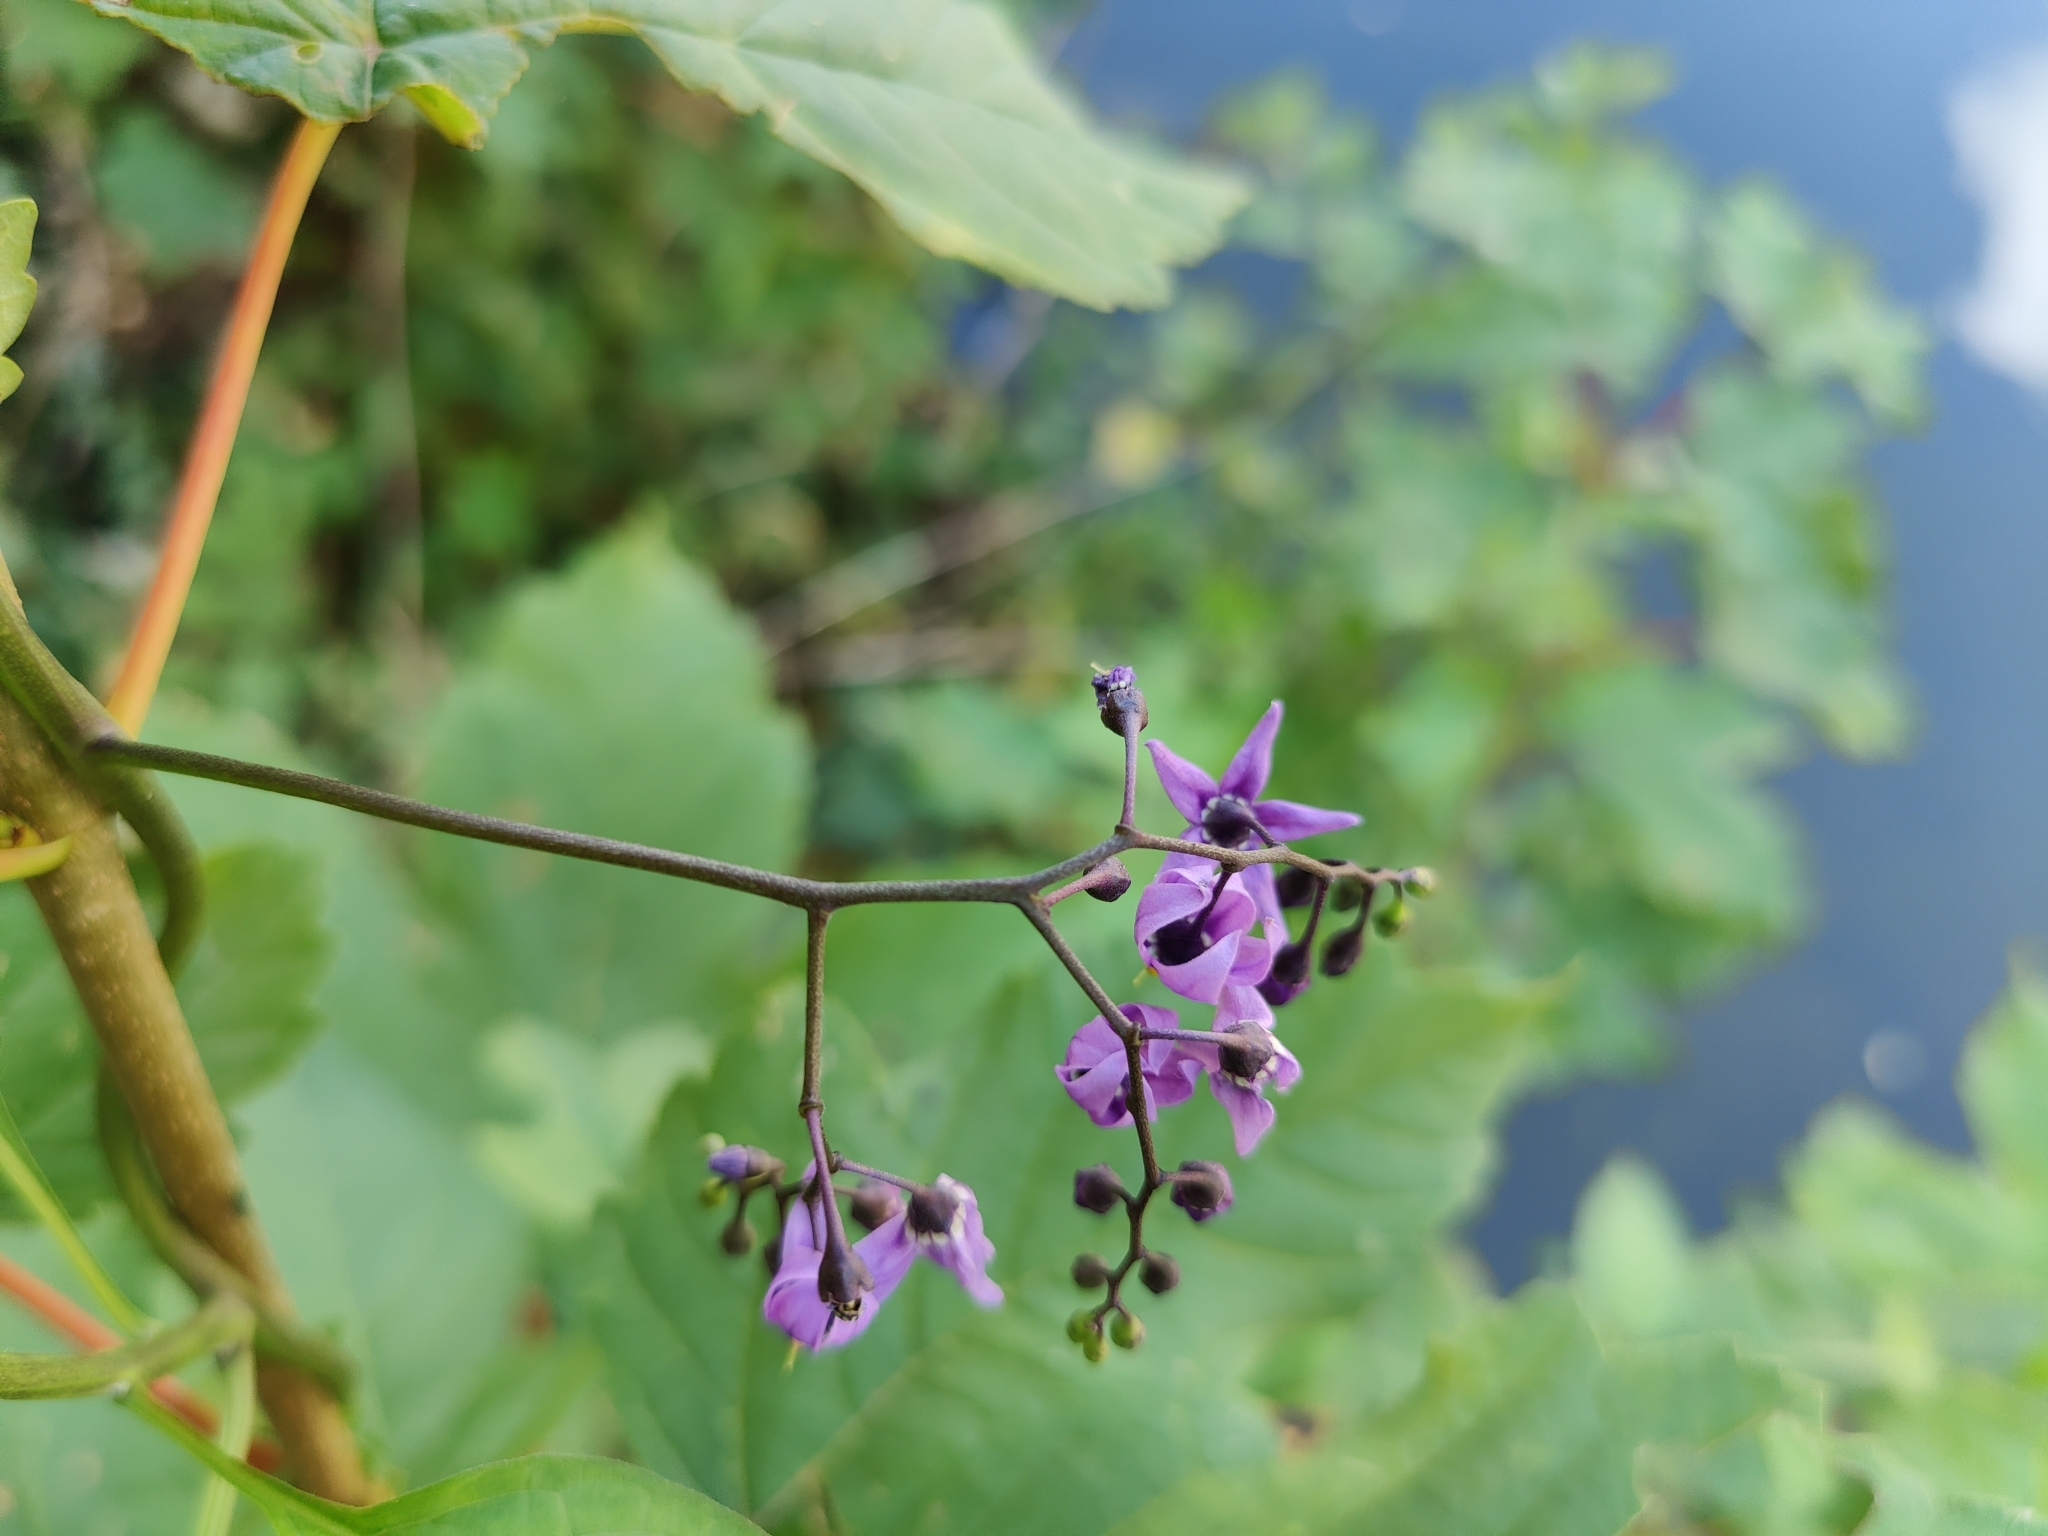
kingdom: Plantae
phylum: Tracheophyta
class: Magnoliopsida
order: Solanales
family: Solanaceae
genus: Solanum
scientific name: Solanum dulcamara
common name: Climbing nightshade
